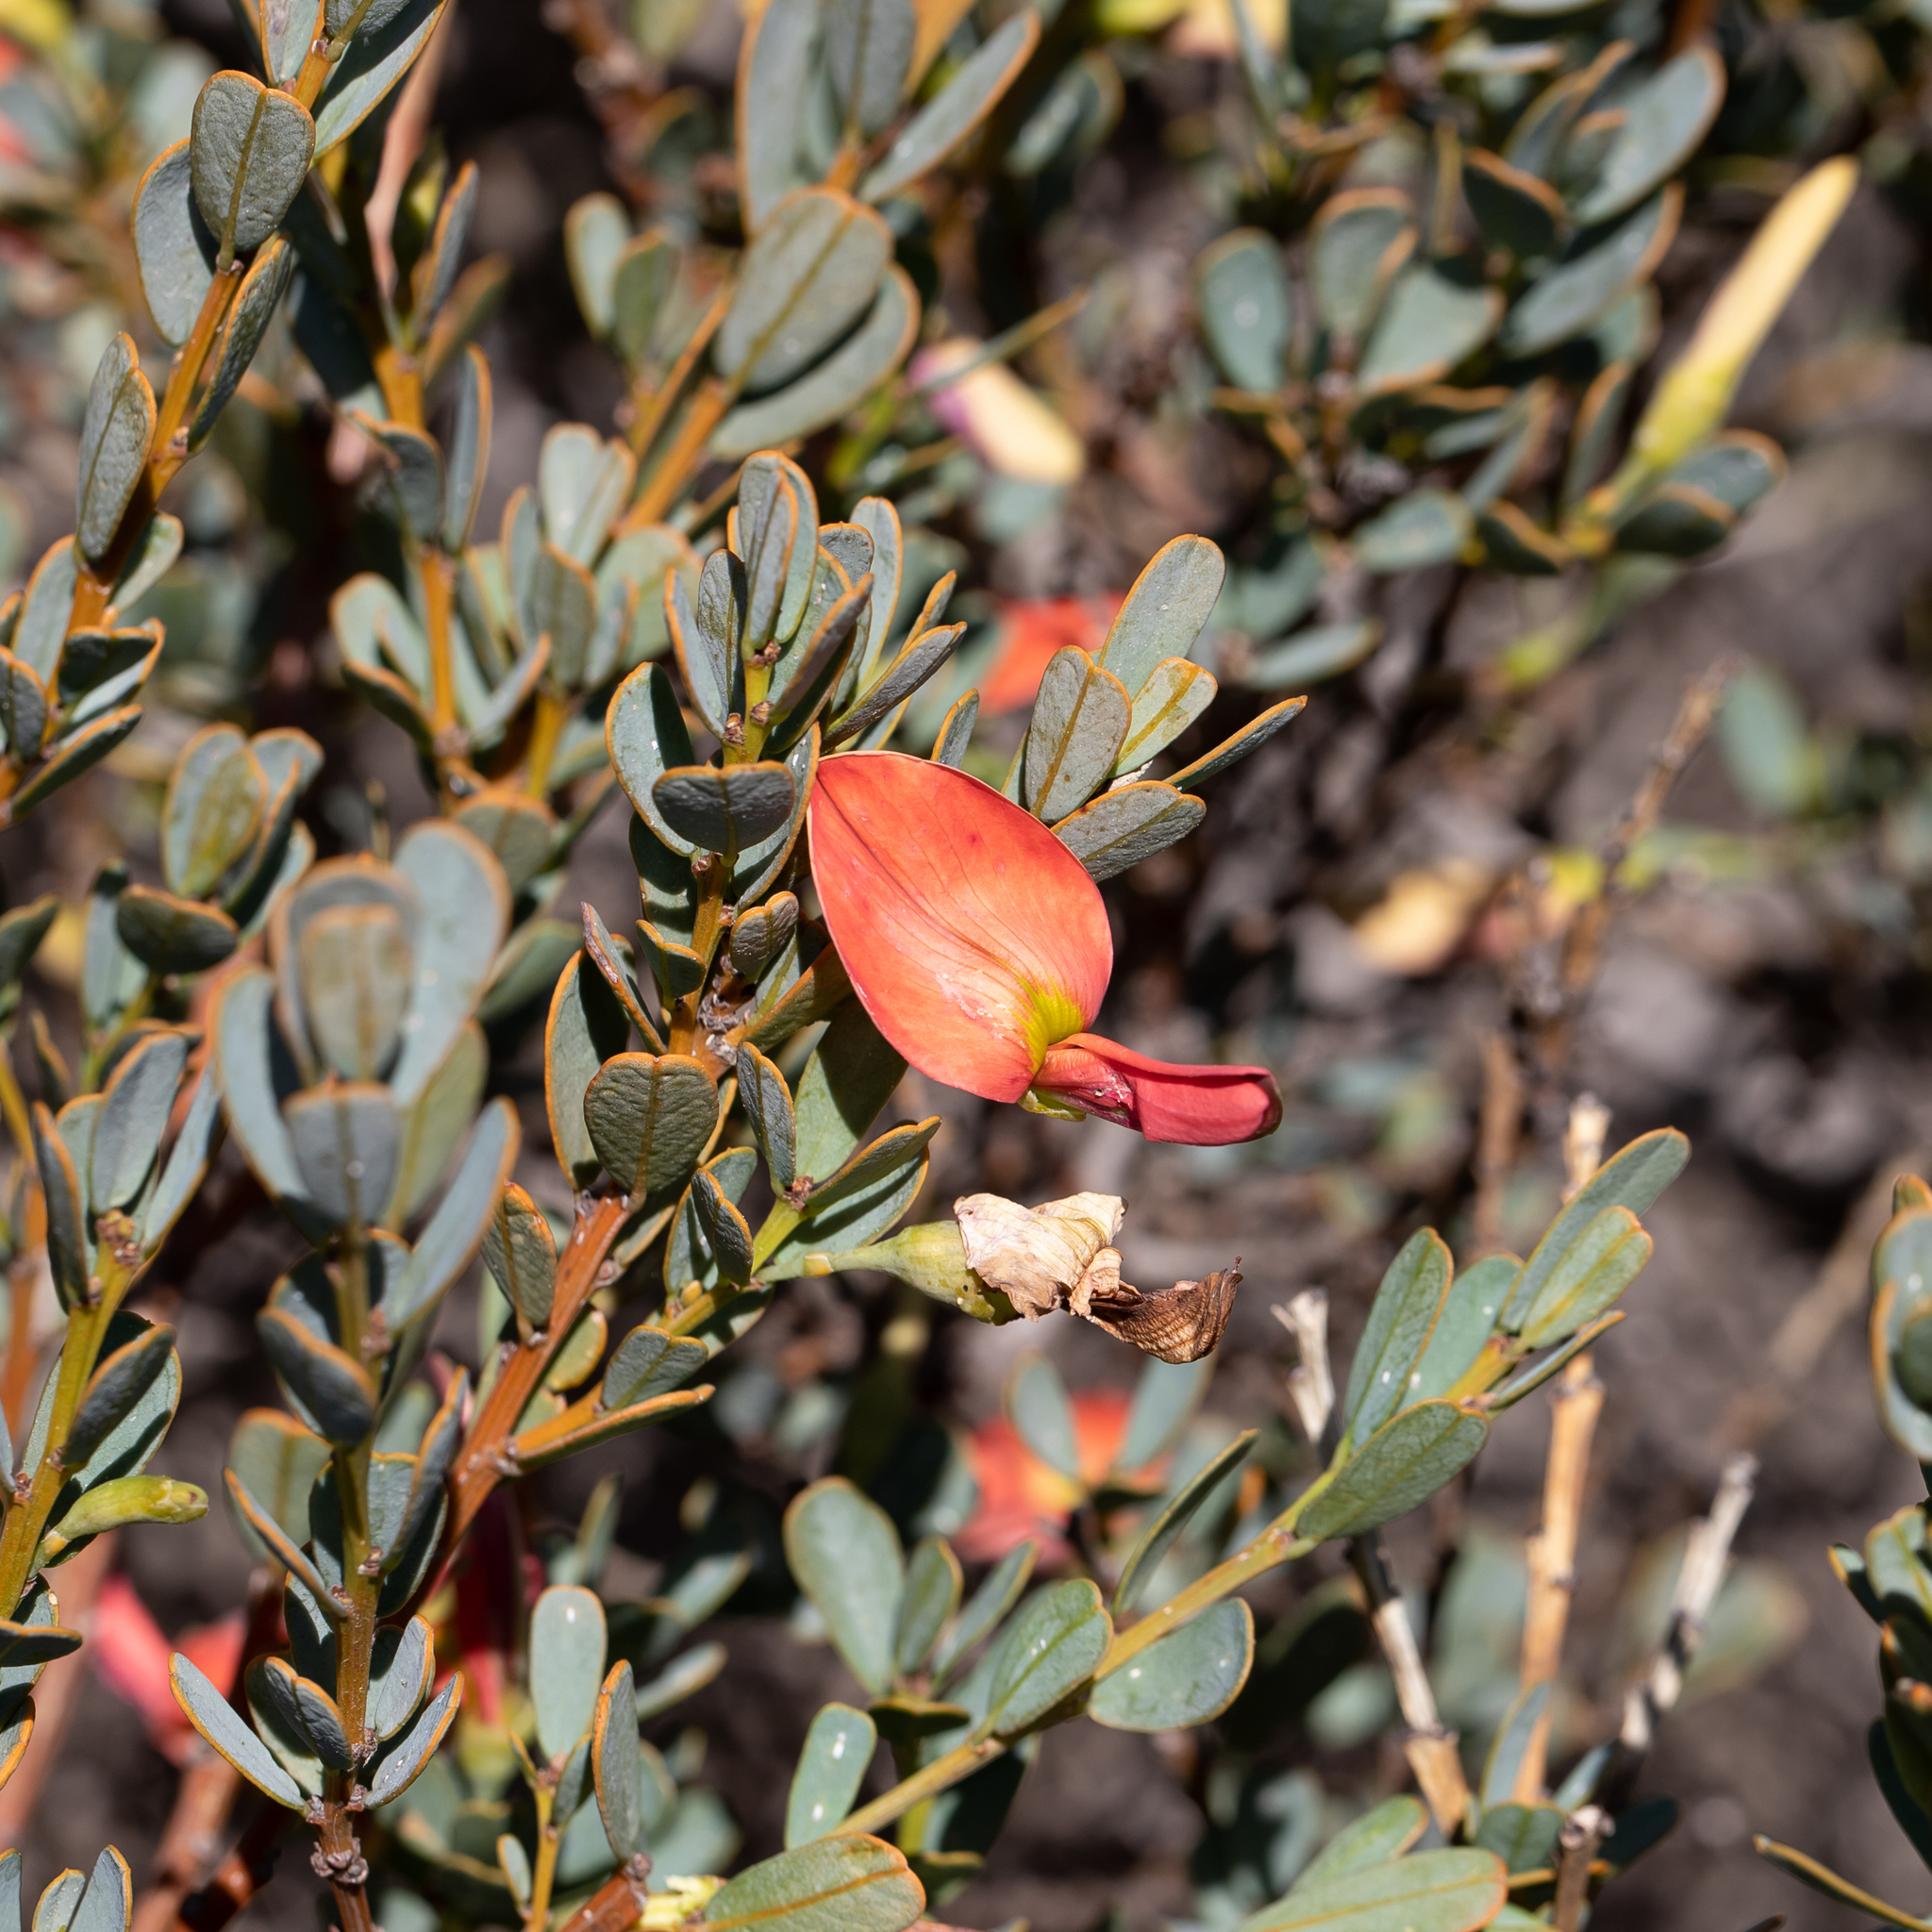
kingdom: Plantae
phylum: Tracheophyta
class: Magnoliopsida
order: Fabales
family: Fabaceae
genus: Templetonia
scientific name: Templetonia retusa
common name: Cockies'-tongue
